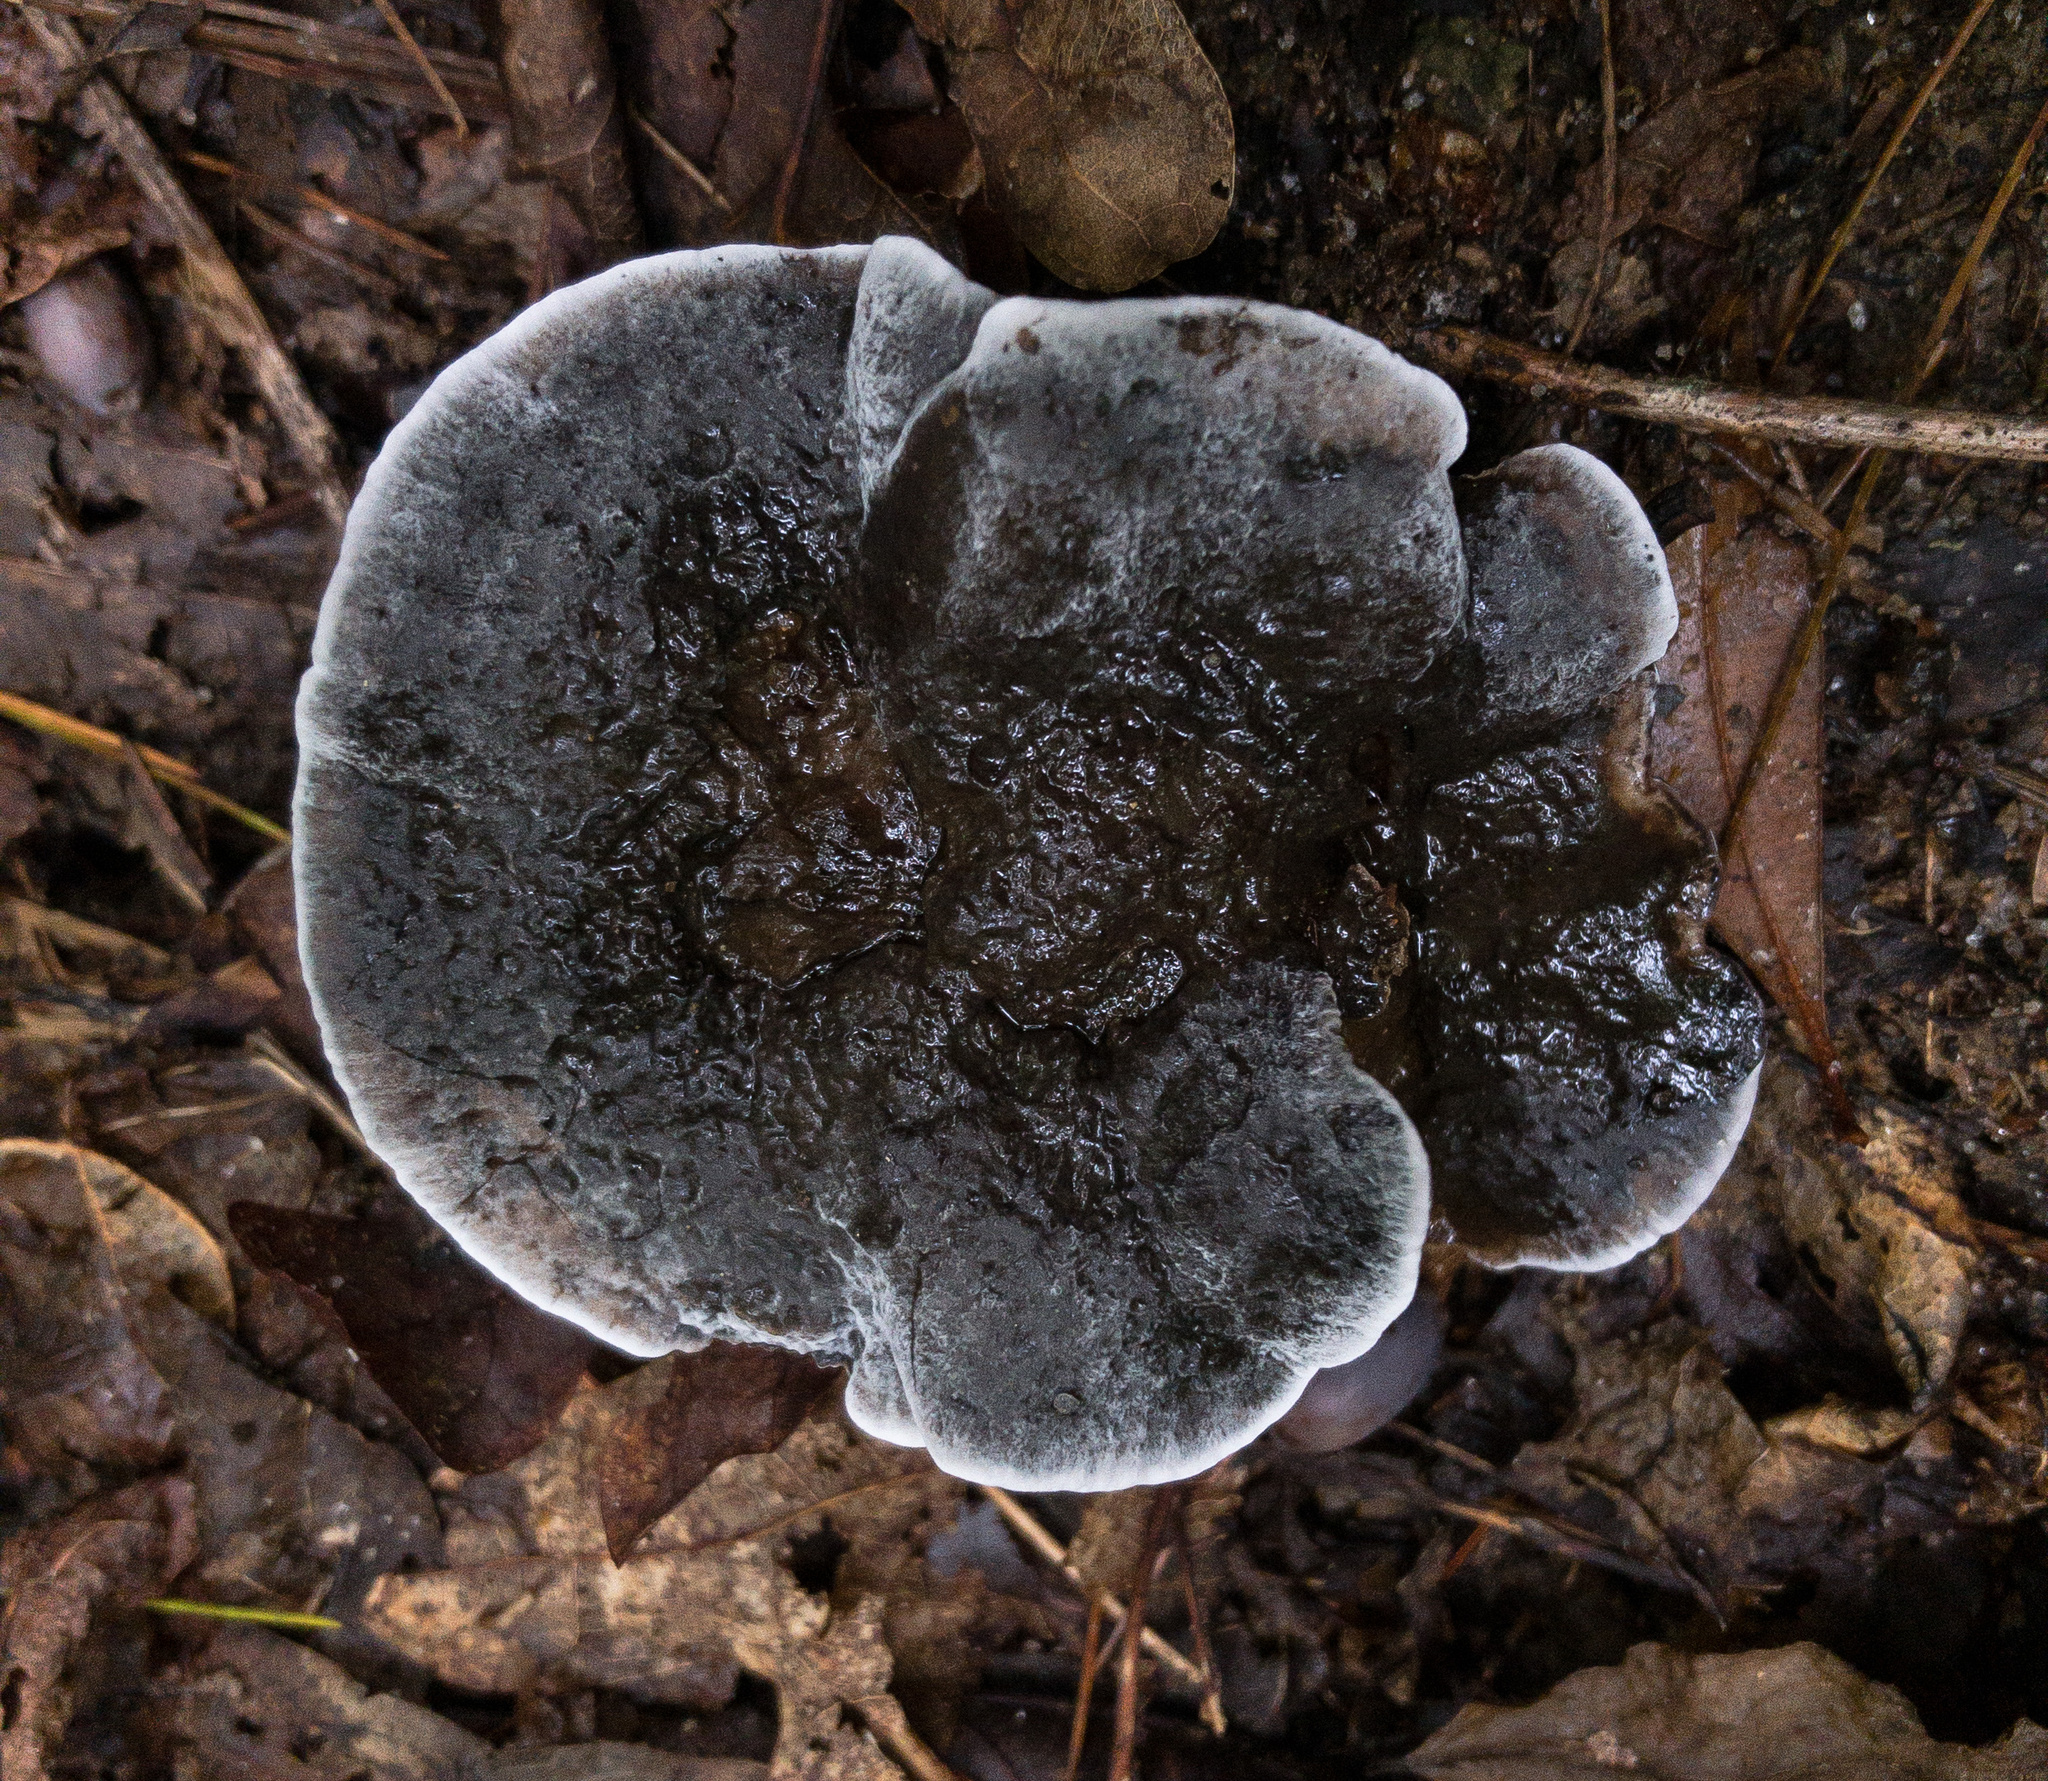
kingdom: Fungi
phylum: Basidiomycota
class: Agaricomycetes
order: Thelephorales
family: Thelephoraceae
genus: Phellodon
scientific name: Phellodon niger
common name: Black tooth
